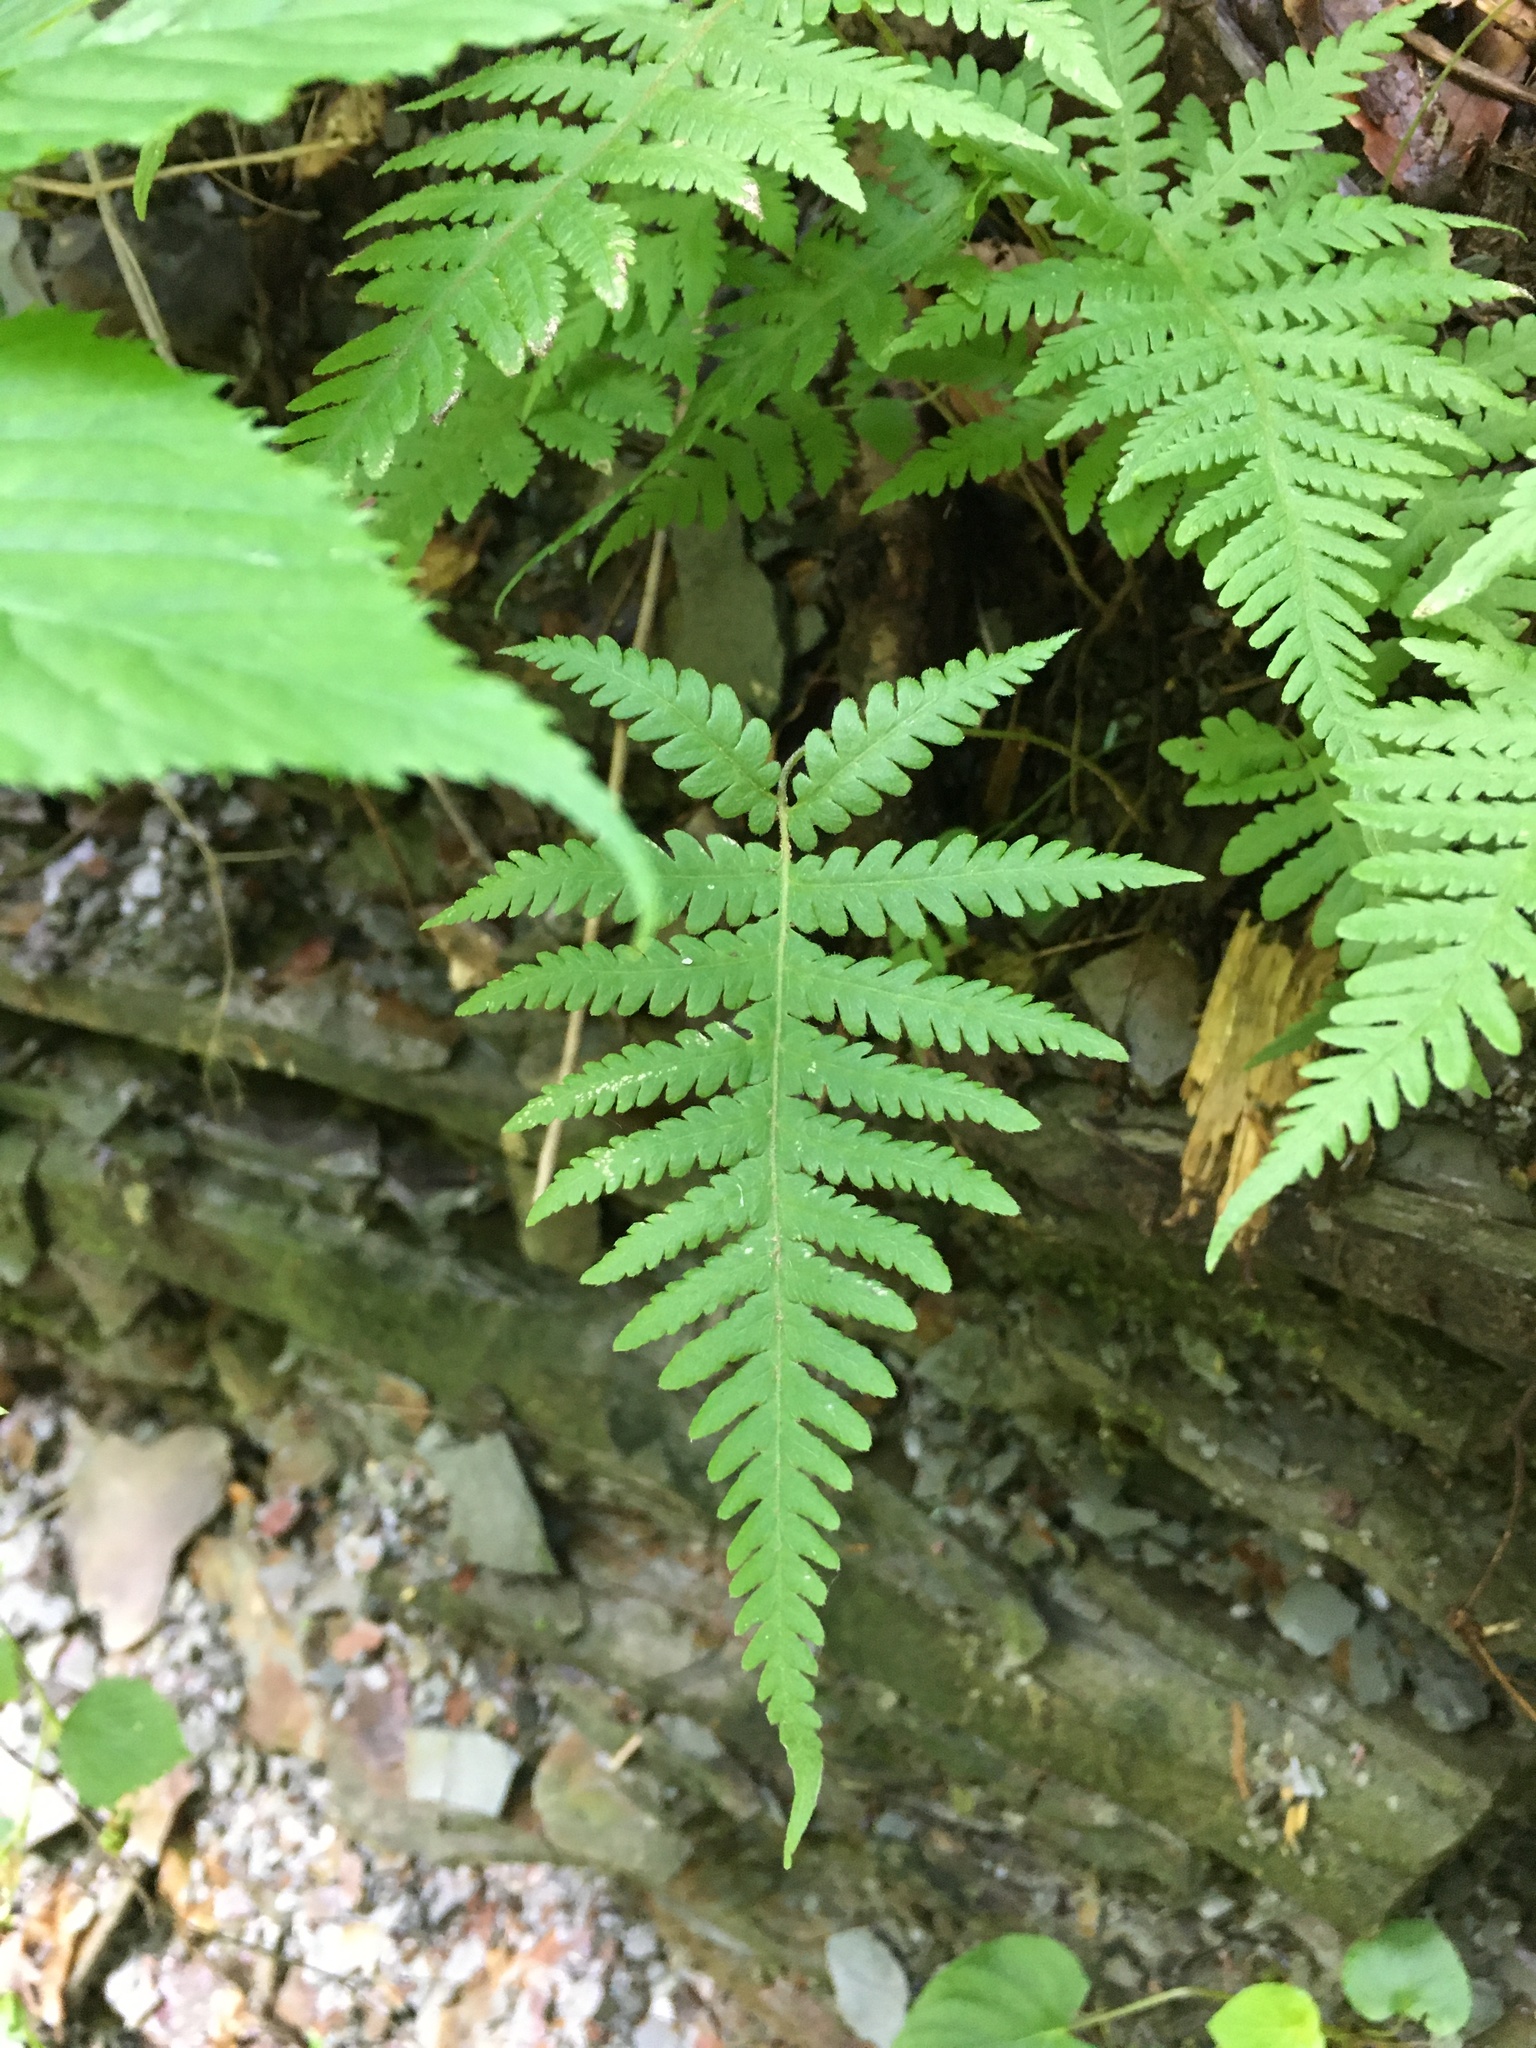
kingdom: Plantae
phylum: Tracheophyta
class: Polypodiopsida
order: Polypodiales
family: Thelypteridaceae
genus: Phegopteris
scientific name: Phegopteris connectilis
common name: Beech fern
